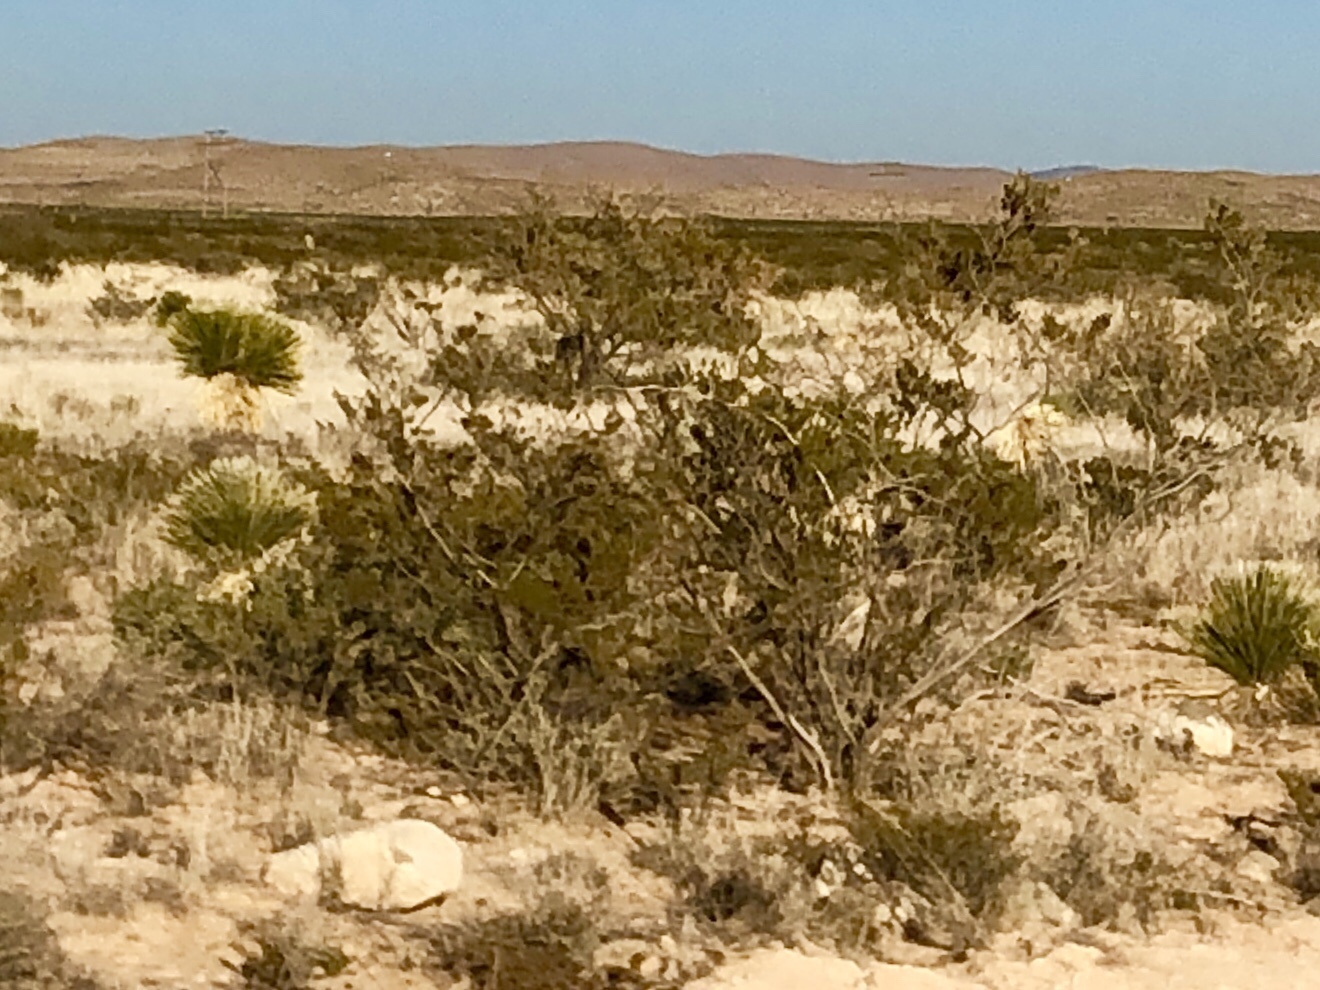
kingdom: Plantae
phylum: Tracheophyta
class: Magnoliopsida
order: Zygophyllales
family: Zygophyllaceae
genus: Larrea
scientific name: Larrea tridentata
